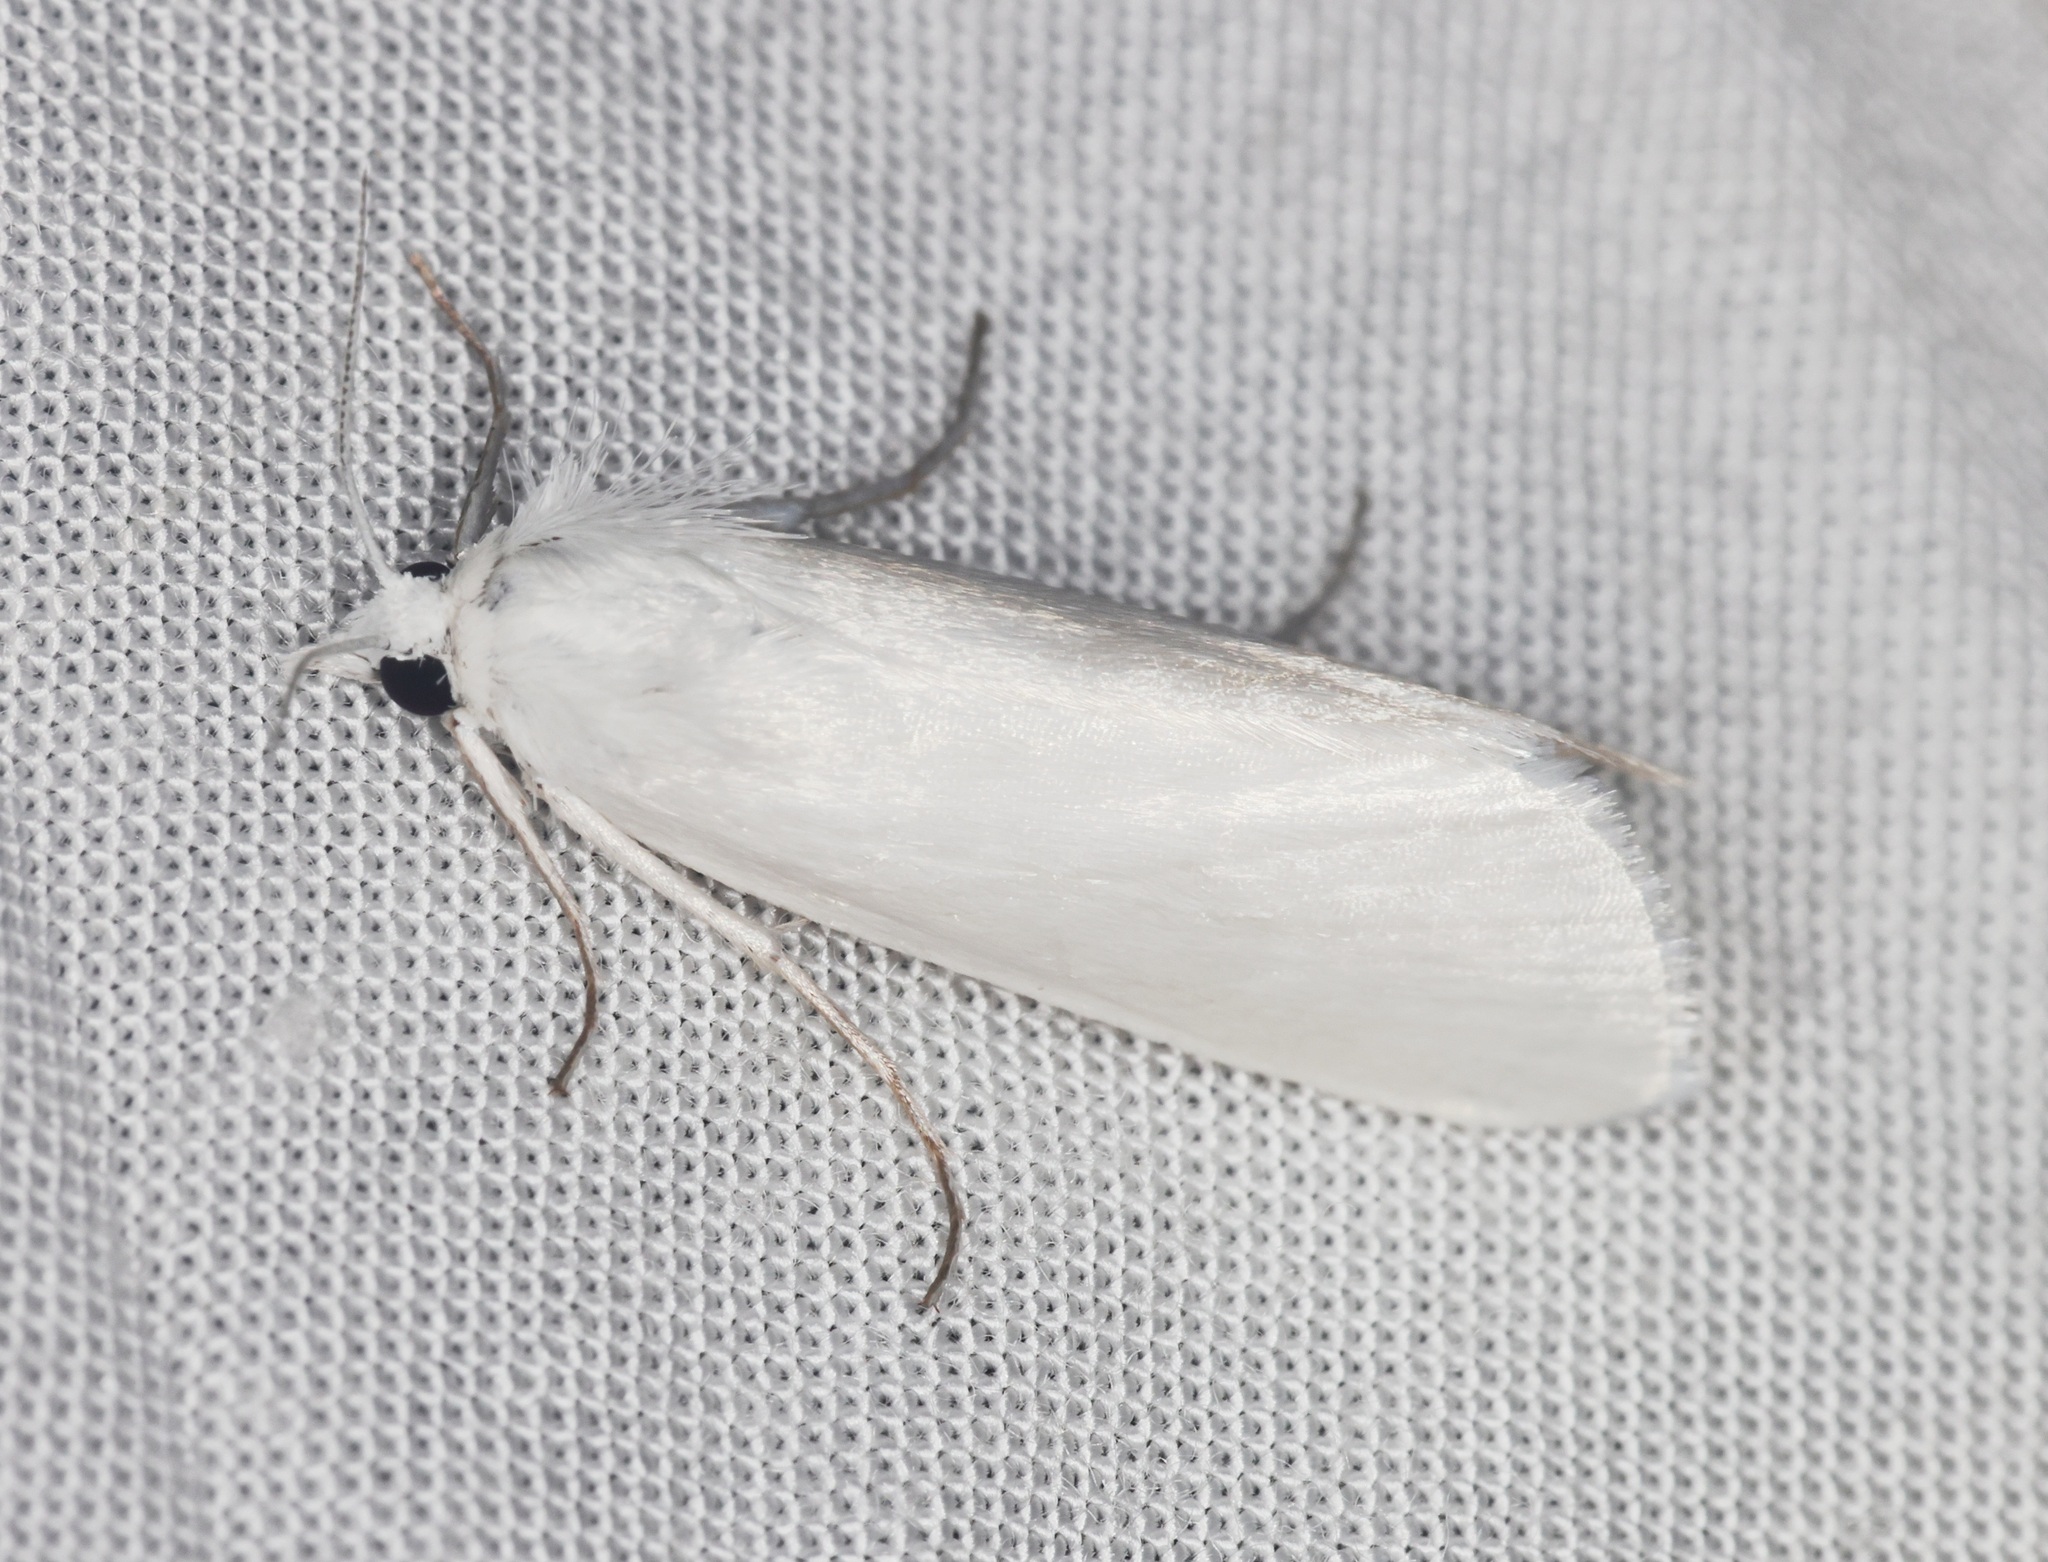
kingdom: Animalia
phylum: Arthropoda
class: Insecta
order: Lepidoptera
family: Crambidae
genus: Scirpophaga
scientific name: Scirpophaga nivella
